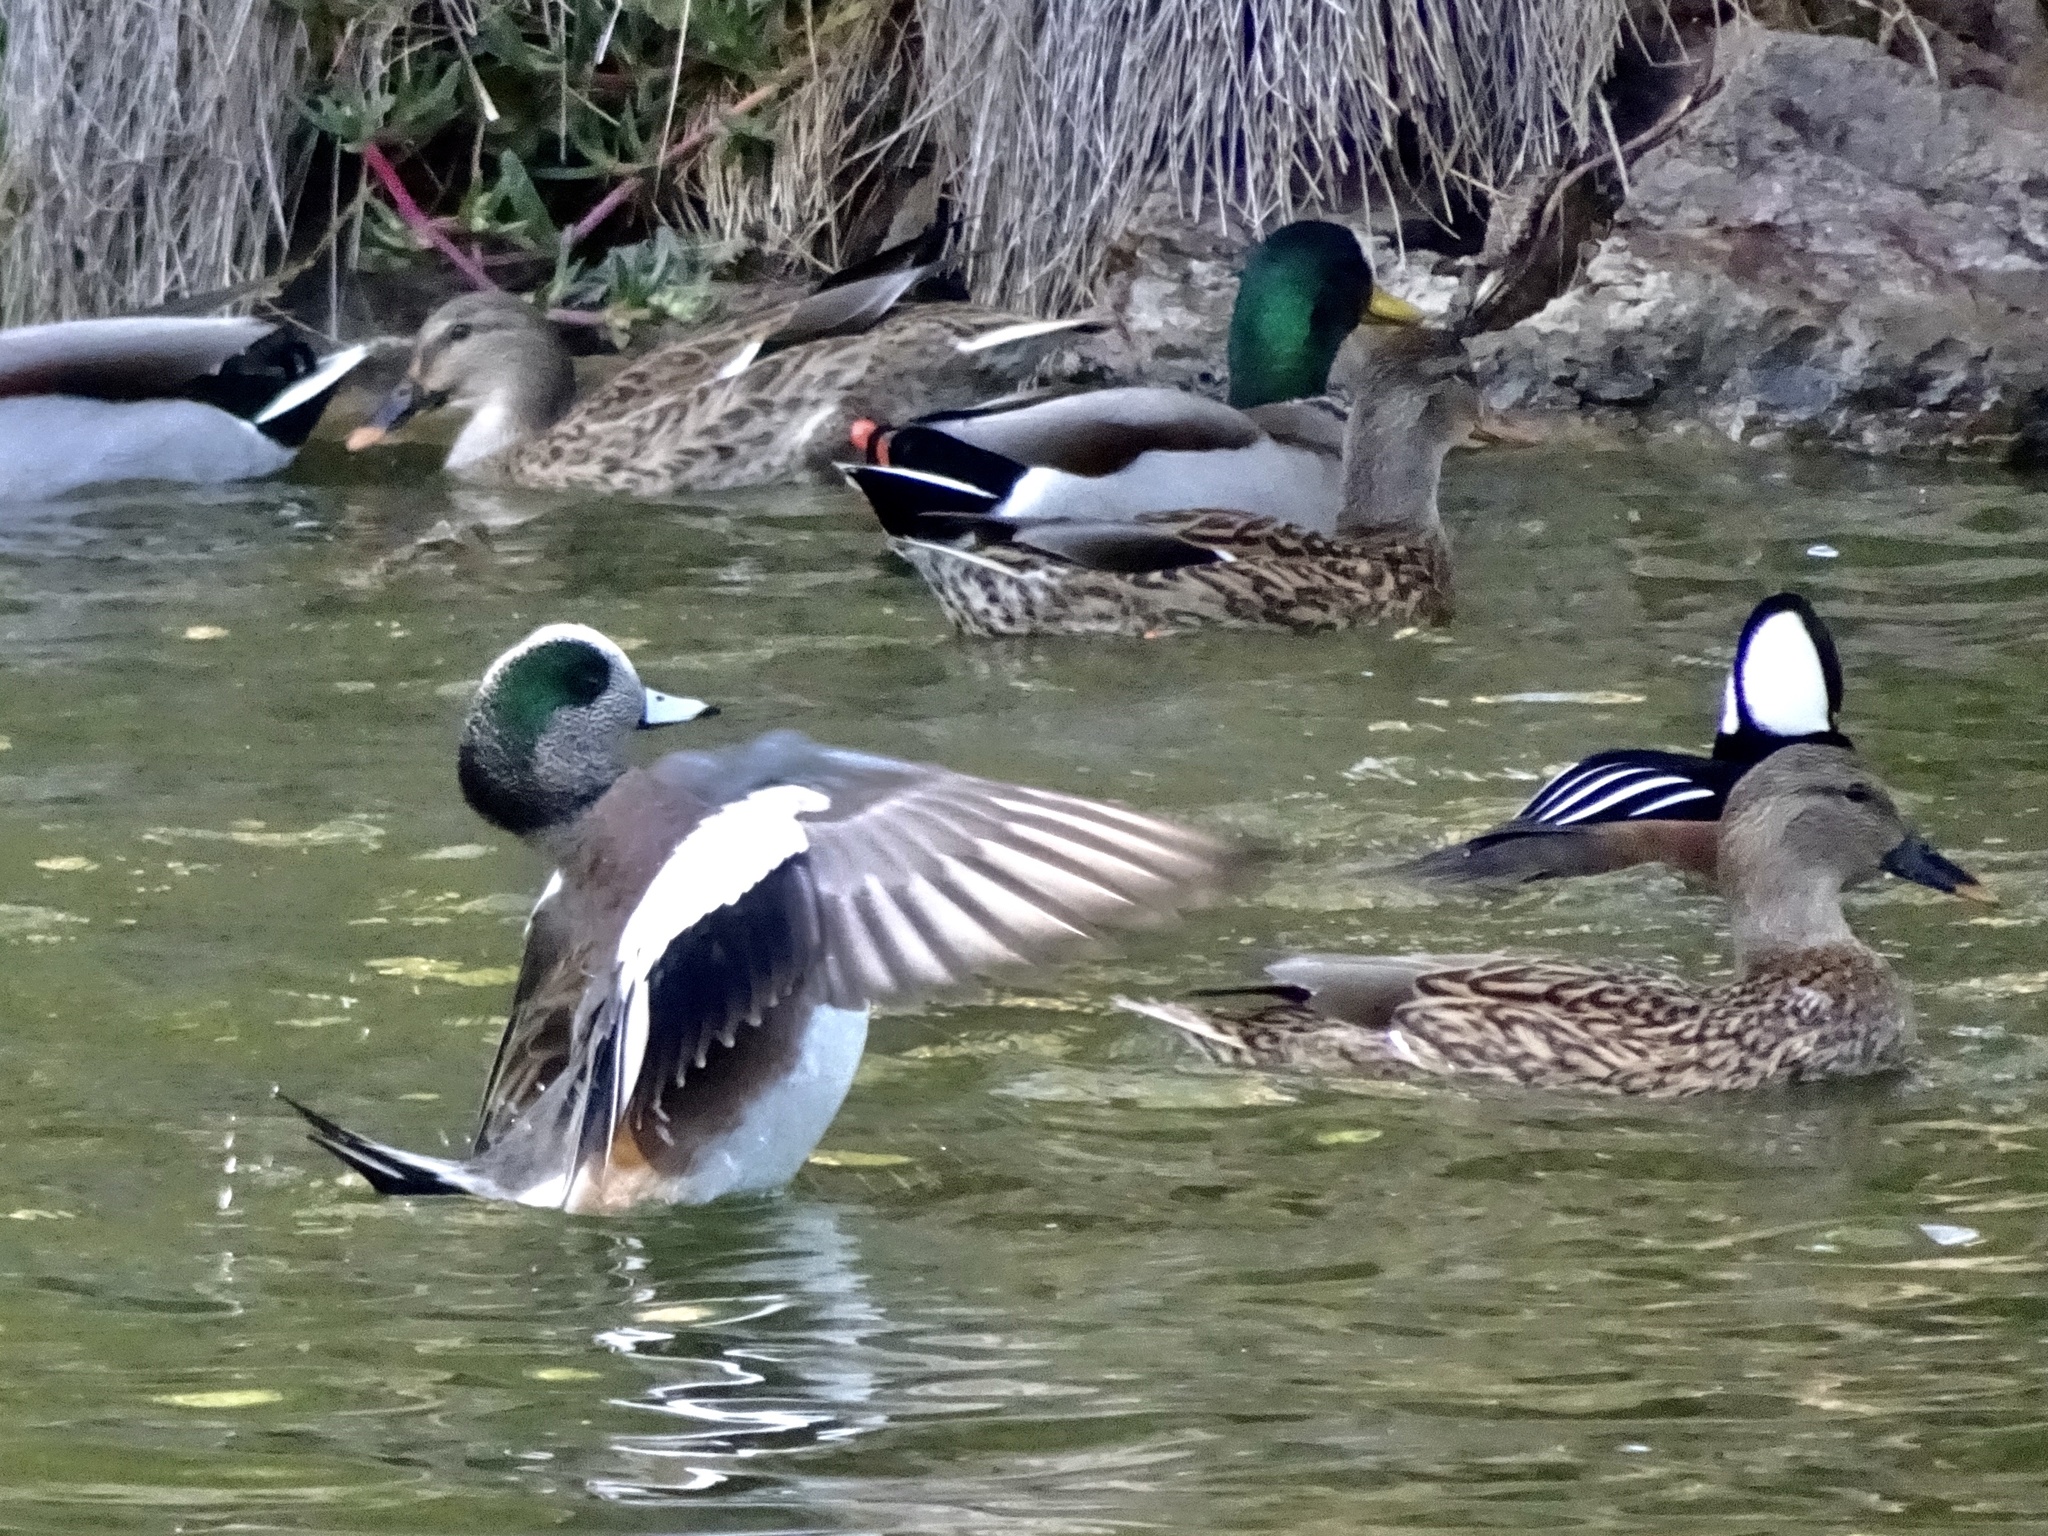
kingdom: Animalia
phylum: Chordata
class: Aves
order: Anseriformes
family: Anatidae
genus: Mareca
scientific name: Mareca americana
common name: American wigeon
